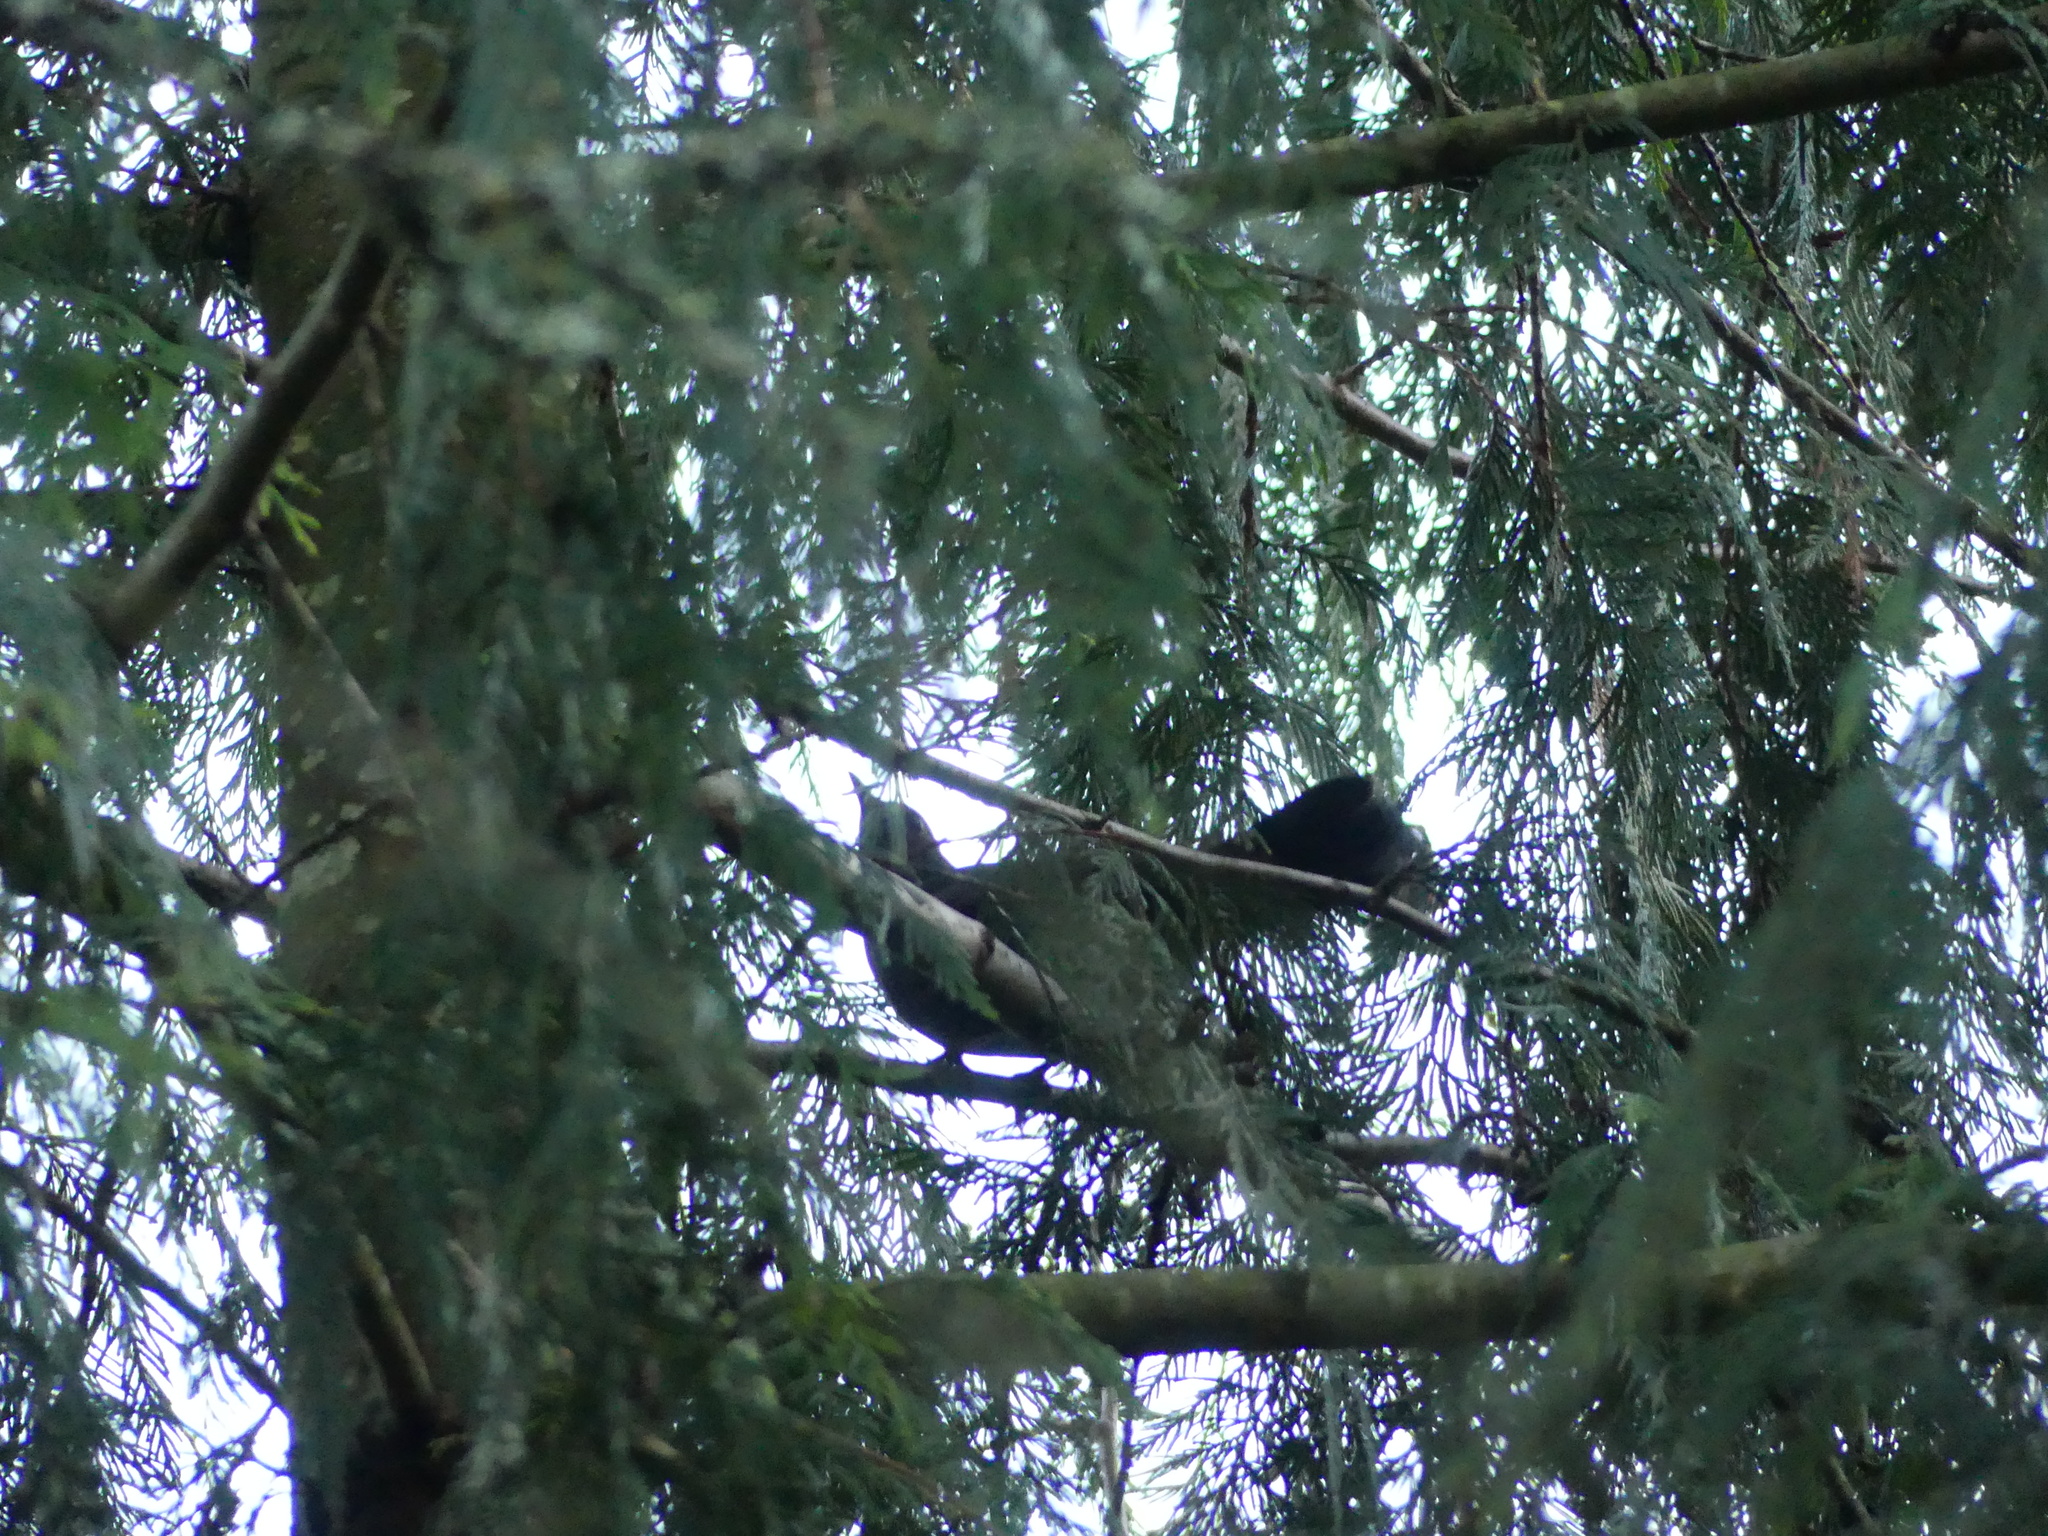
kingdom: Animalia
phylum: Chordata
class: Aves
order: Passeriformes
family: Turdidae
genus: Turdus
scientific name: Turdus merula
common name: Common blackbird
